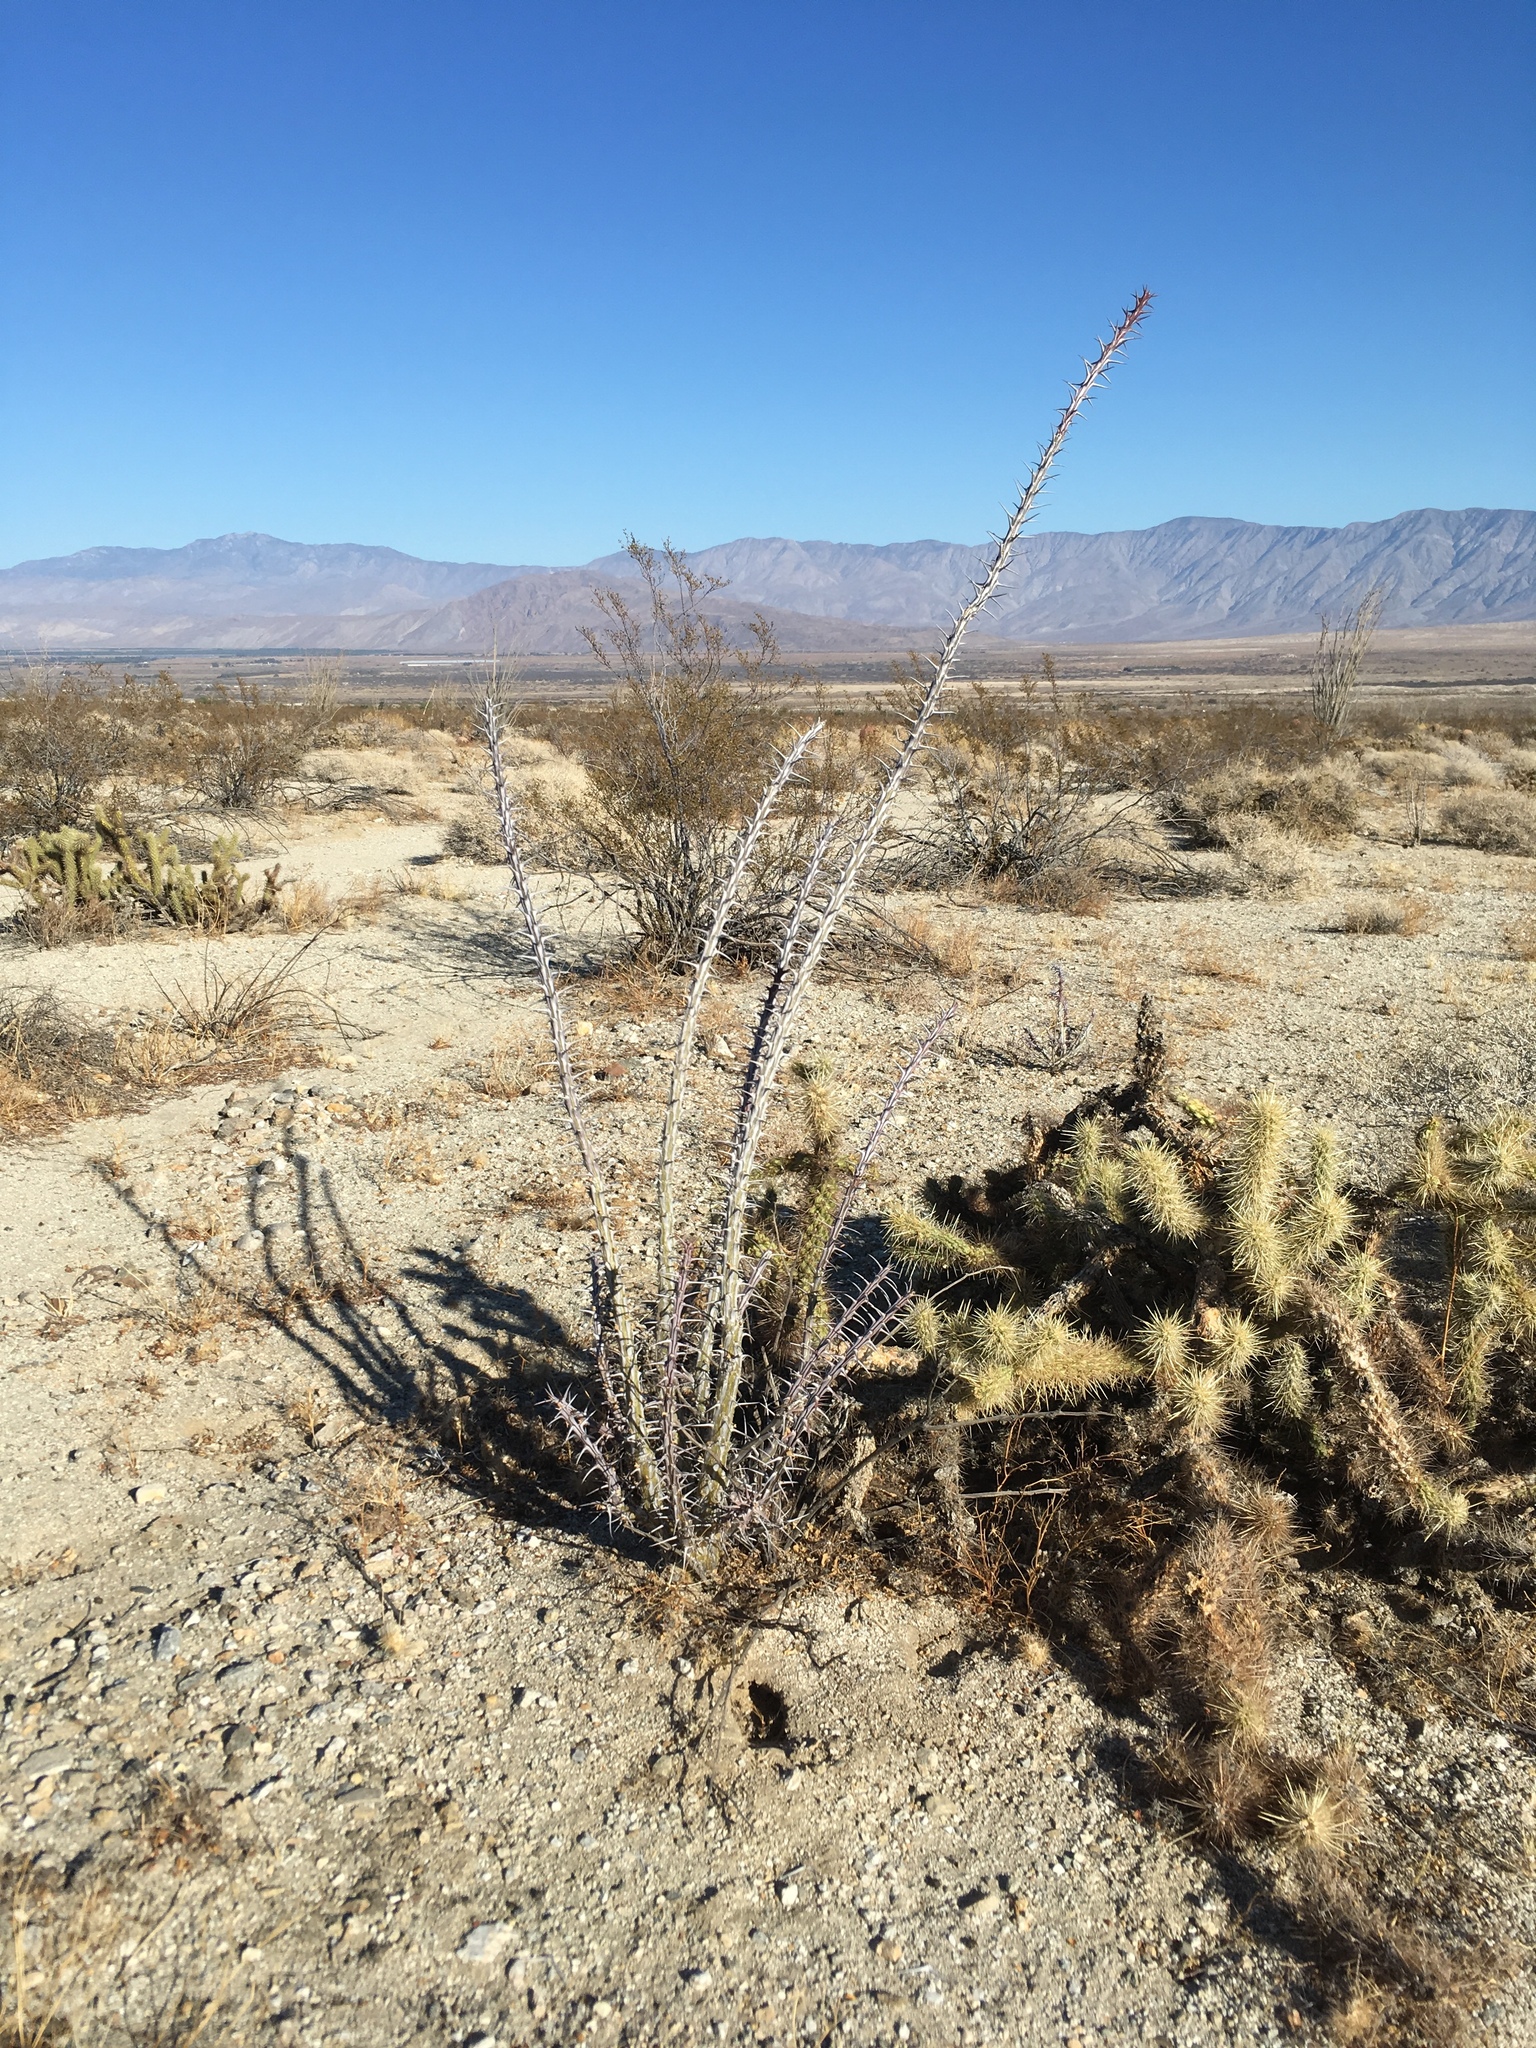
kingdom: Plantae
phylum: Tracheophyta
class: Magnoliopsida
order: Ericales
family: Fouquieriaceae
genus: Fouquieria
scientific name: Fouquieria splendens
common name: Vine-cactus
